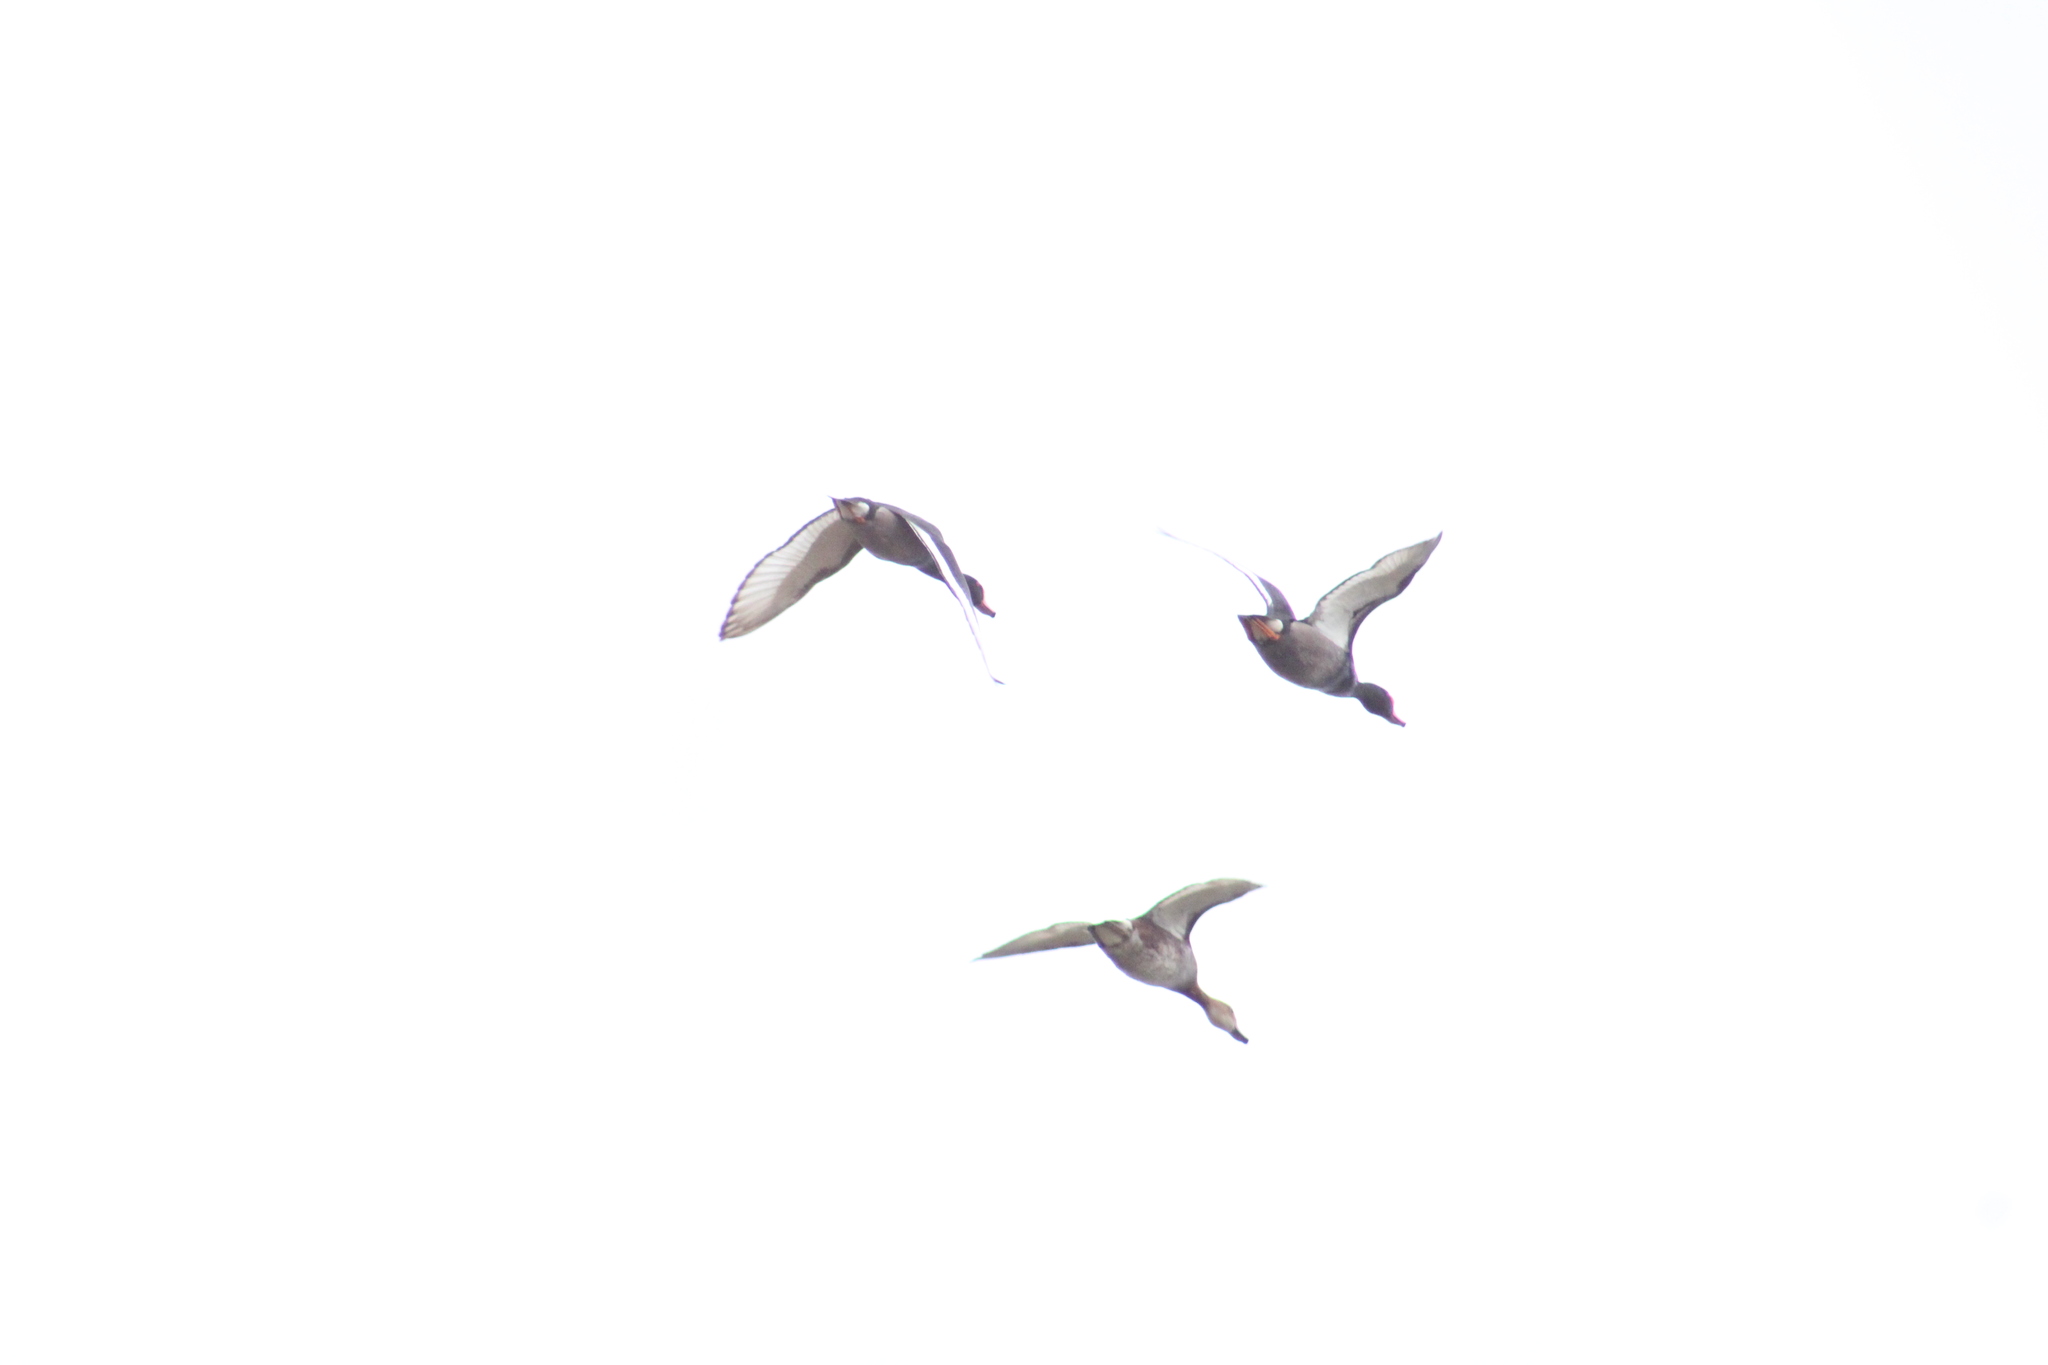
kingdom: Animalia
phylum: Chordata
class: Aves
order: Anseriformes
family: Anatidae
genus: Netta
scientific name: Netta peposaca
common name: Rosy-billed pochard
